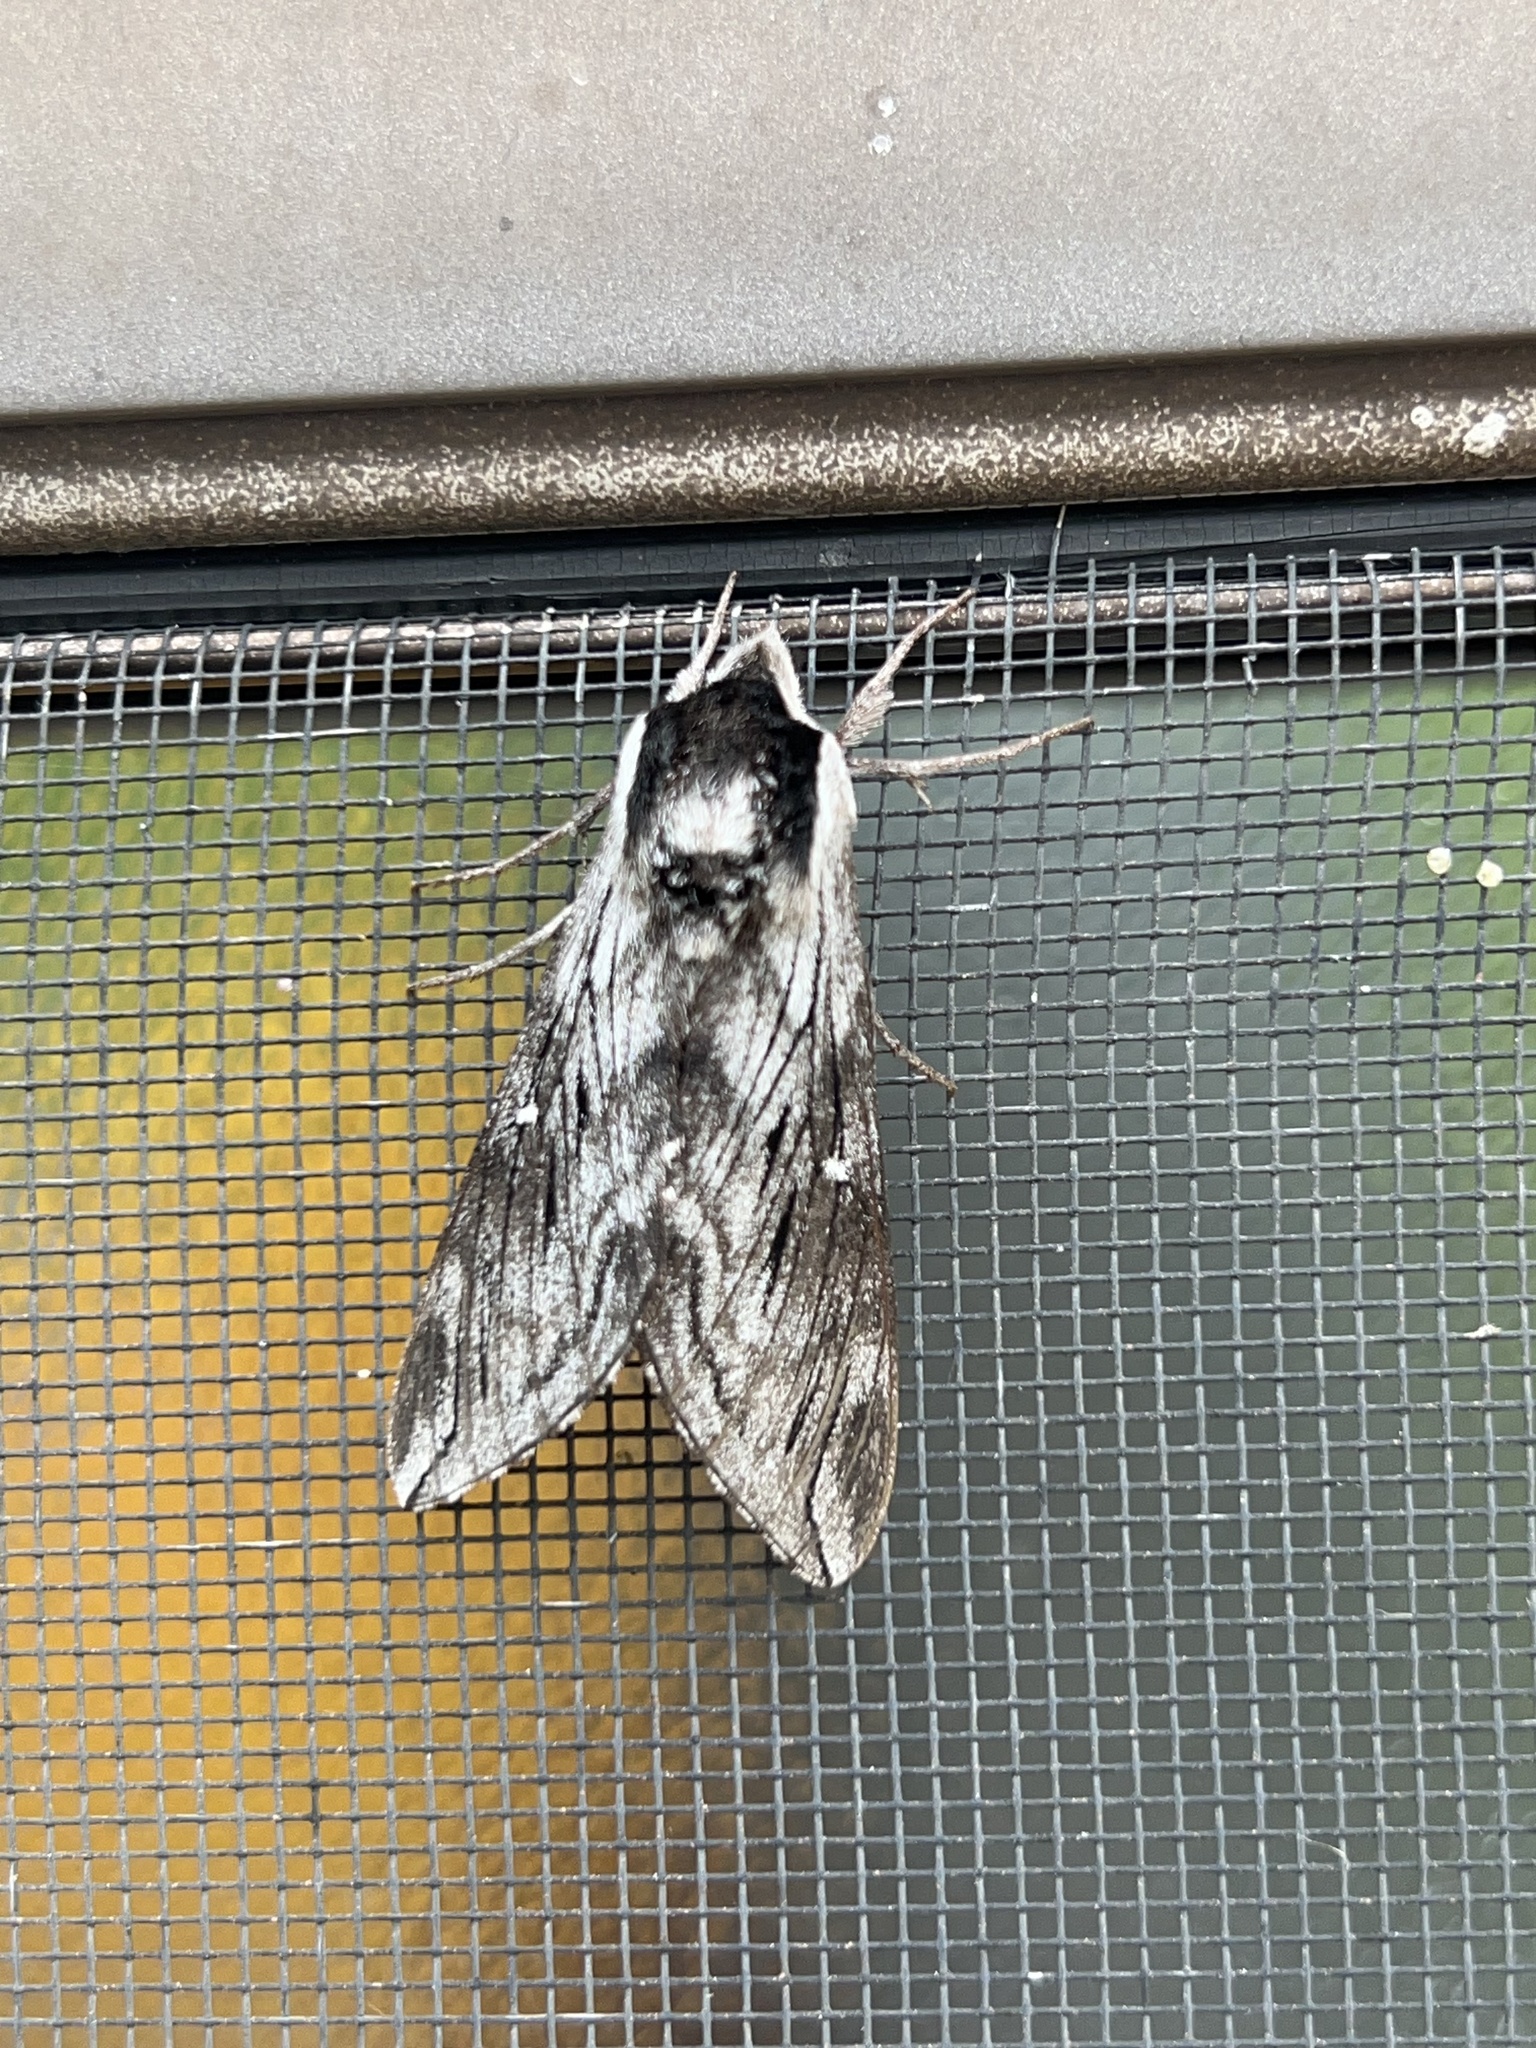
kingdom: Animalia
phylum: Arthropoda
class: Insecta
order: Lepidoptera
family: Sphingidae
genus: Sphinx
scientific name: Sphinx poecila
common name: Northern apple sphinx
